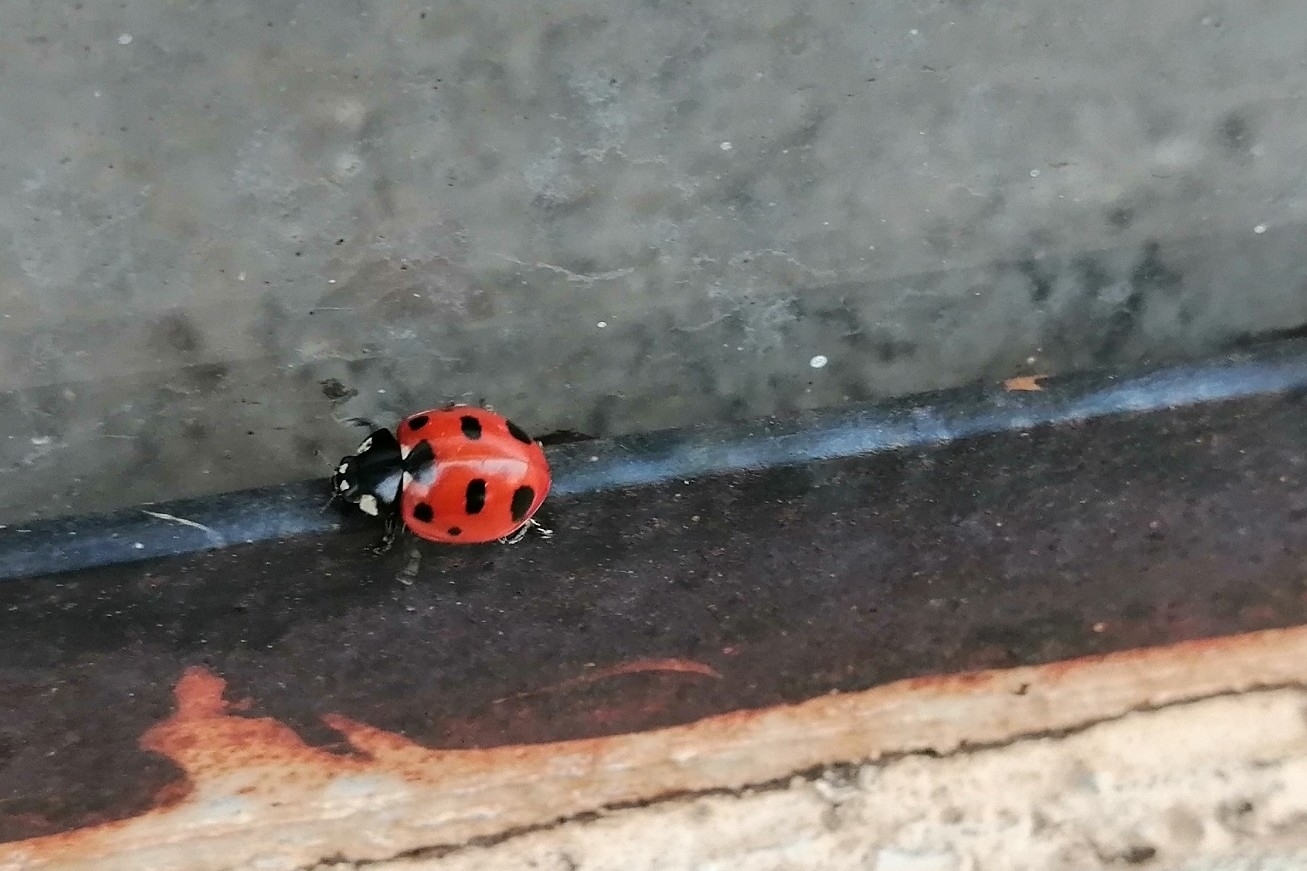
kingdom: Animalia
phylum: Arthropoda
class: Insecta
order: Coleoptera
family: Coccinellidae
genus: Coccinella
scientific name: Coccinella
